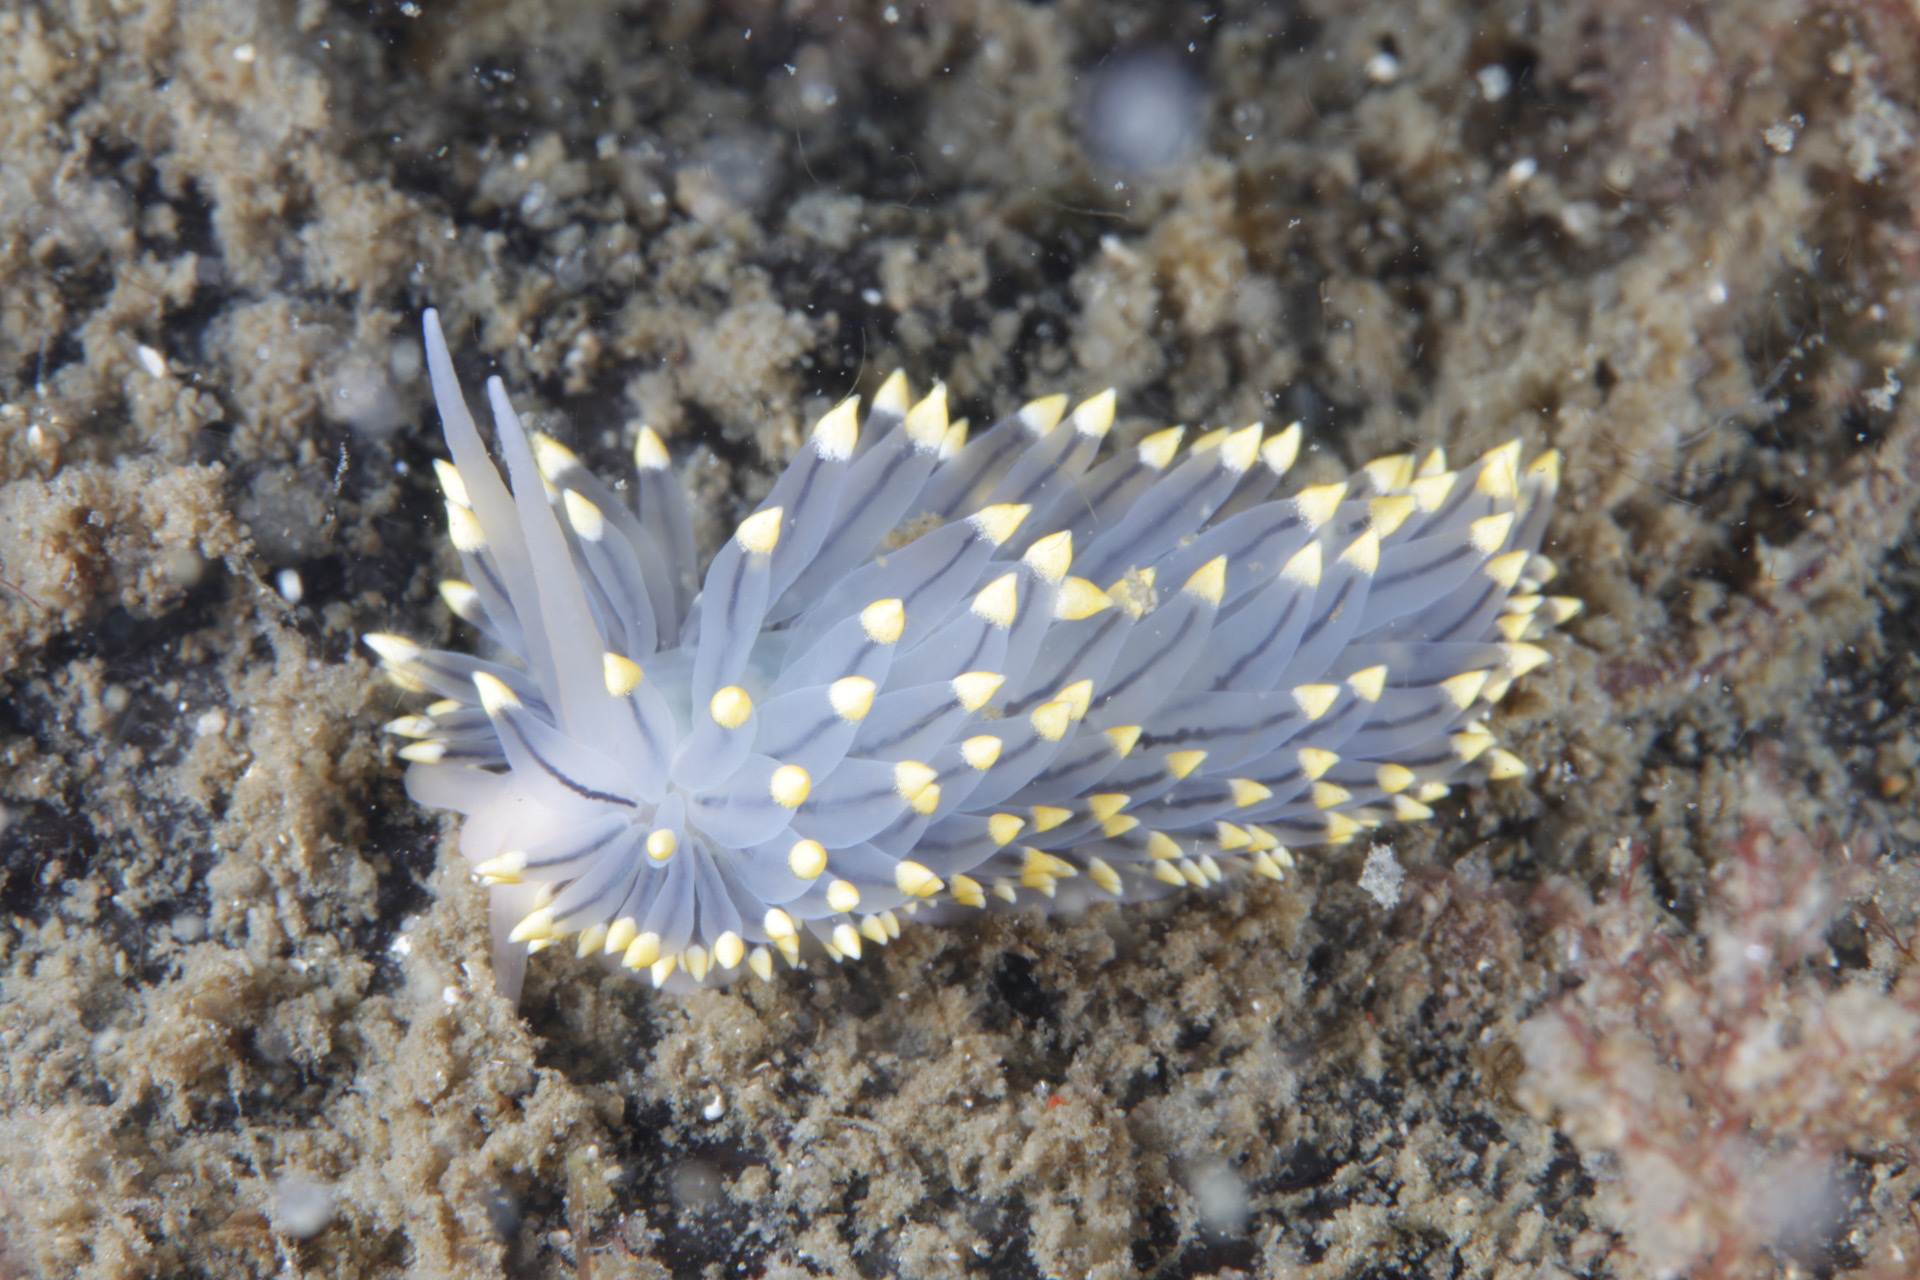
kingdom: Animalia
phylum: Mollusca
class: Gastropoda
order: Nudibranchia
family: Eubranchidae
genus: Eubranchus
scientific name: Eubranchus tricolor
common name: Painted balloon aeolis
